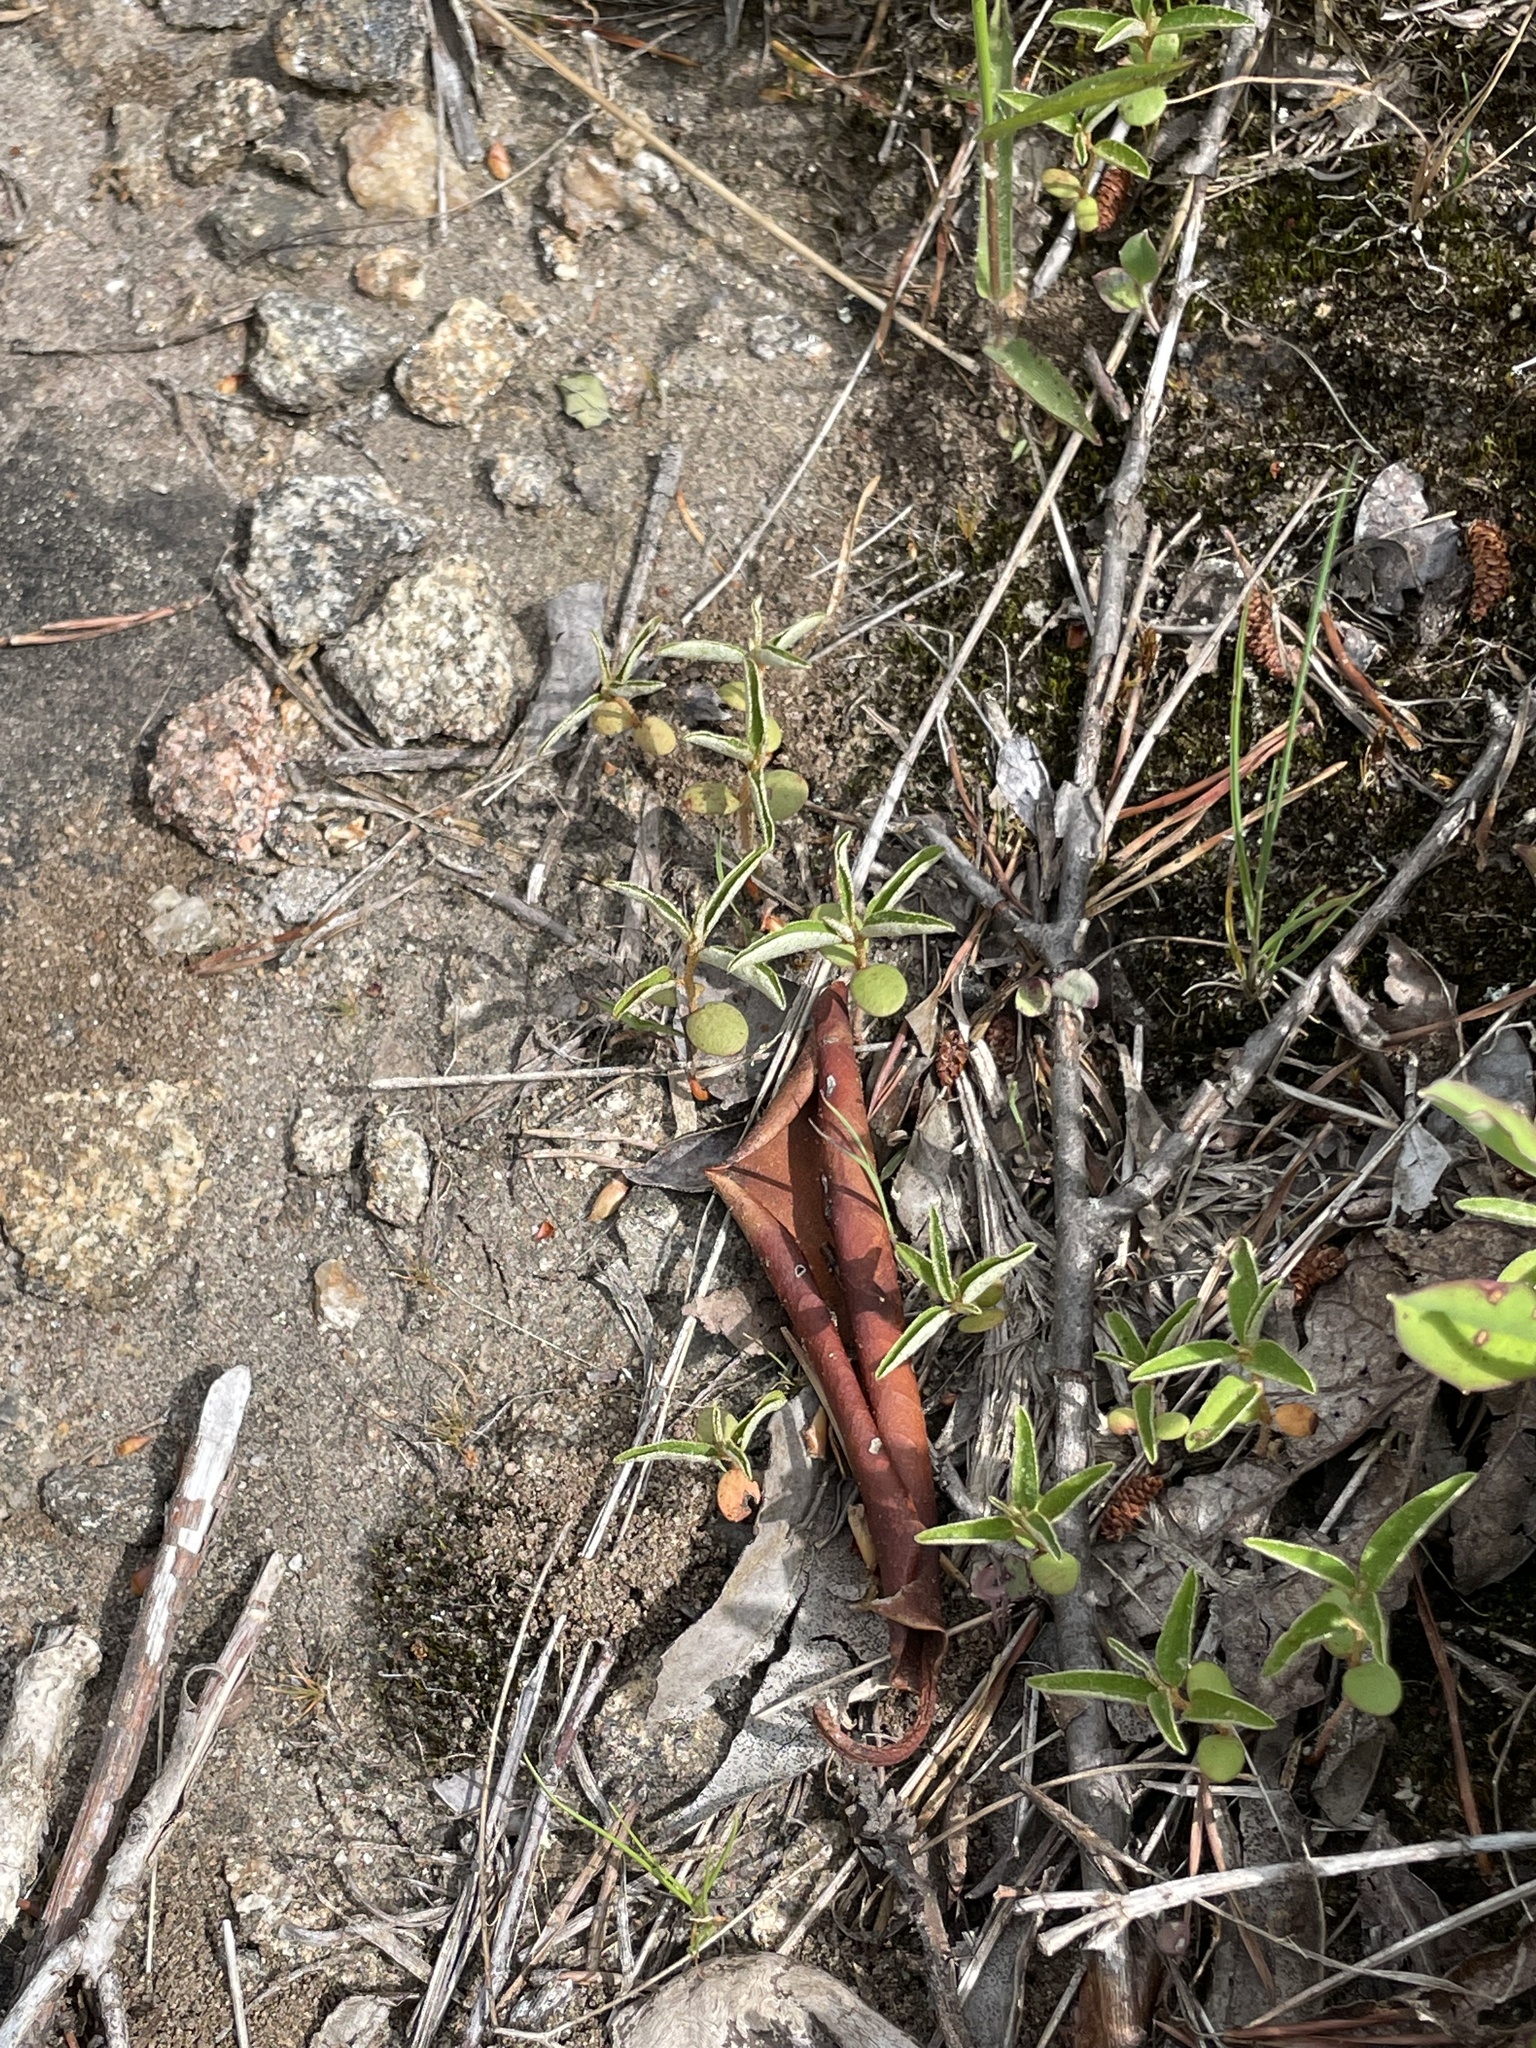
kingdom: Plantae
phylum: Tracheophyta
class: Magnoliopsida
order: Malpighiales
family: Euphorbiaceae
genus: Croton
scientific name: Croton michauxii
